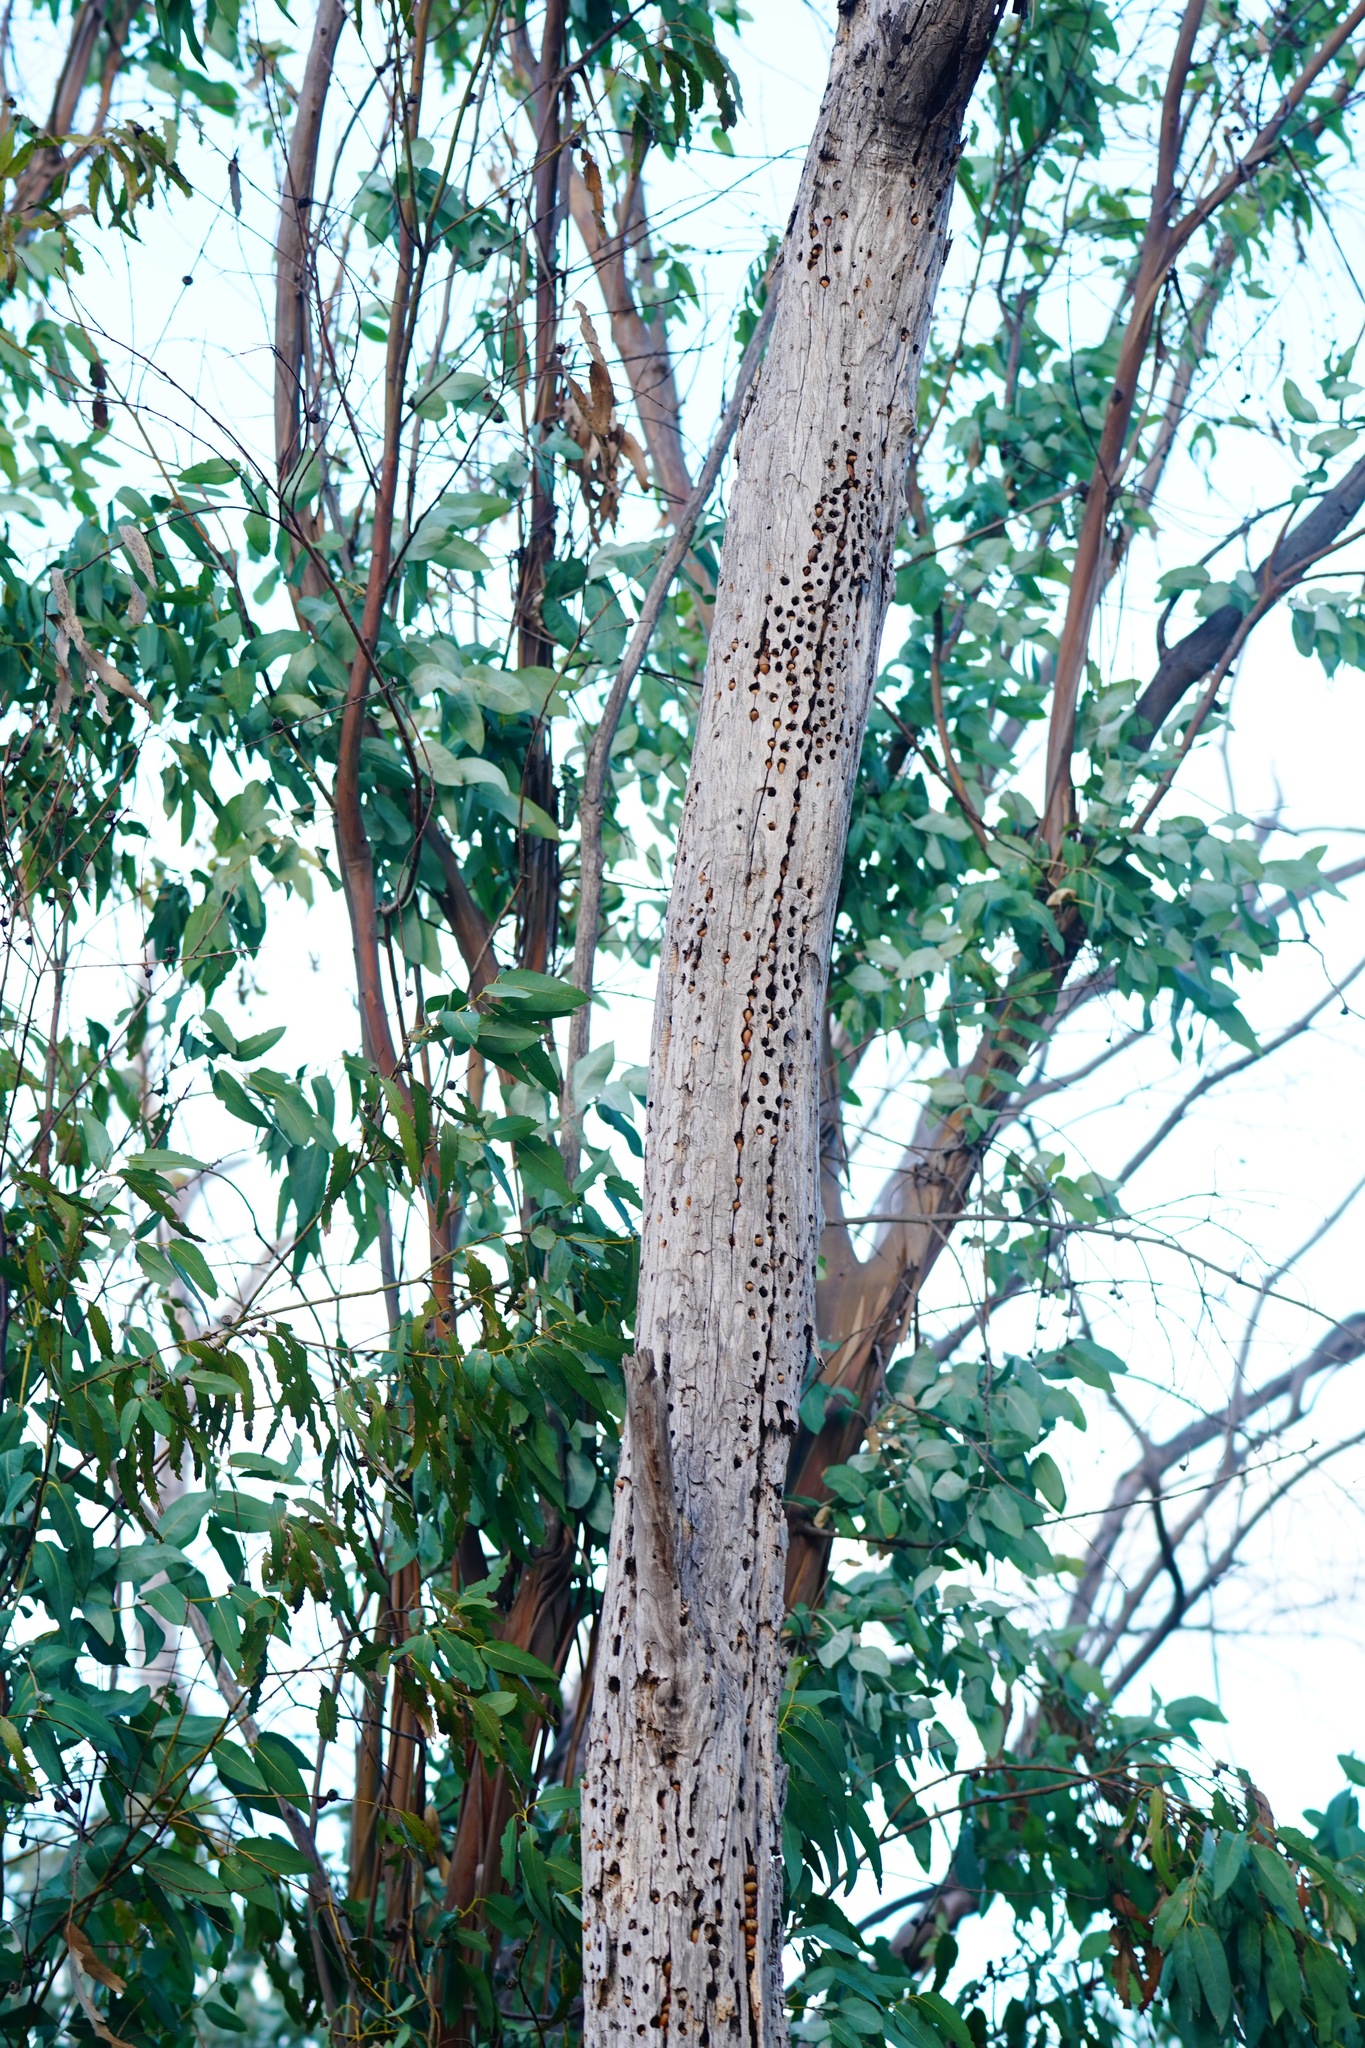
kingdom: Animalia
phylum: Chordata
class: Aves
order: Piciformes
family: Picidae
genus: Melanerpes
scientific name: Melanerpes formicivorus
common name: Acorn woodpecker
